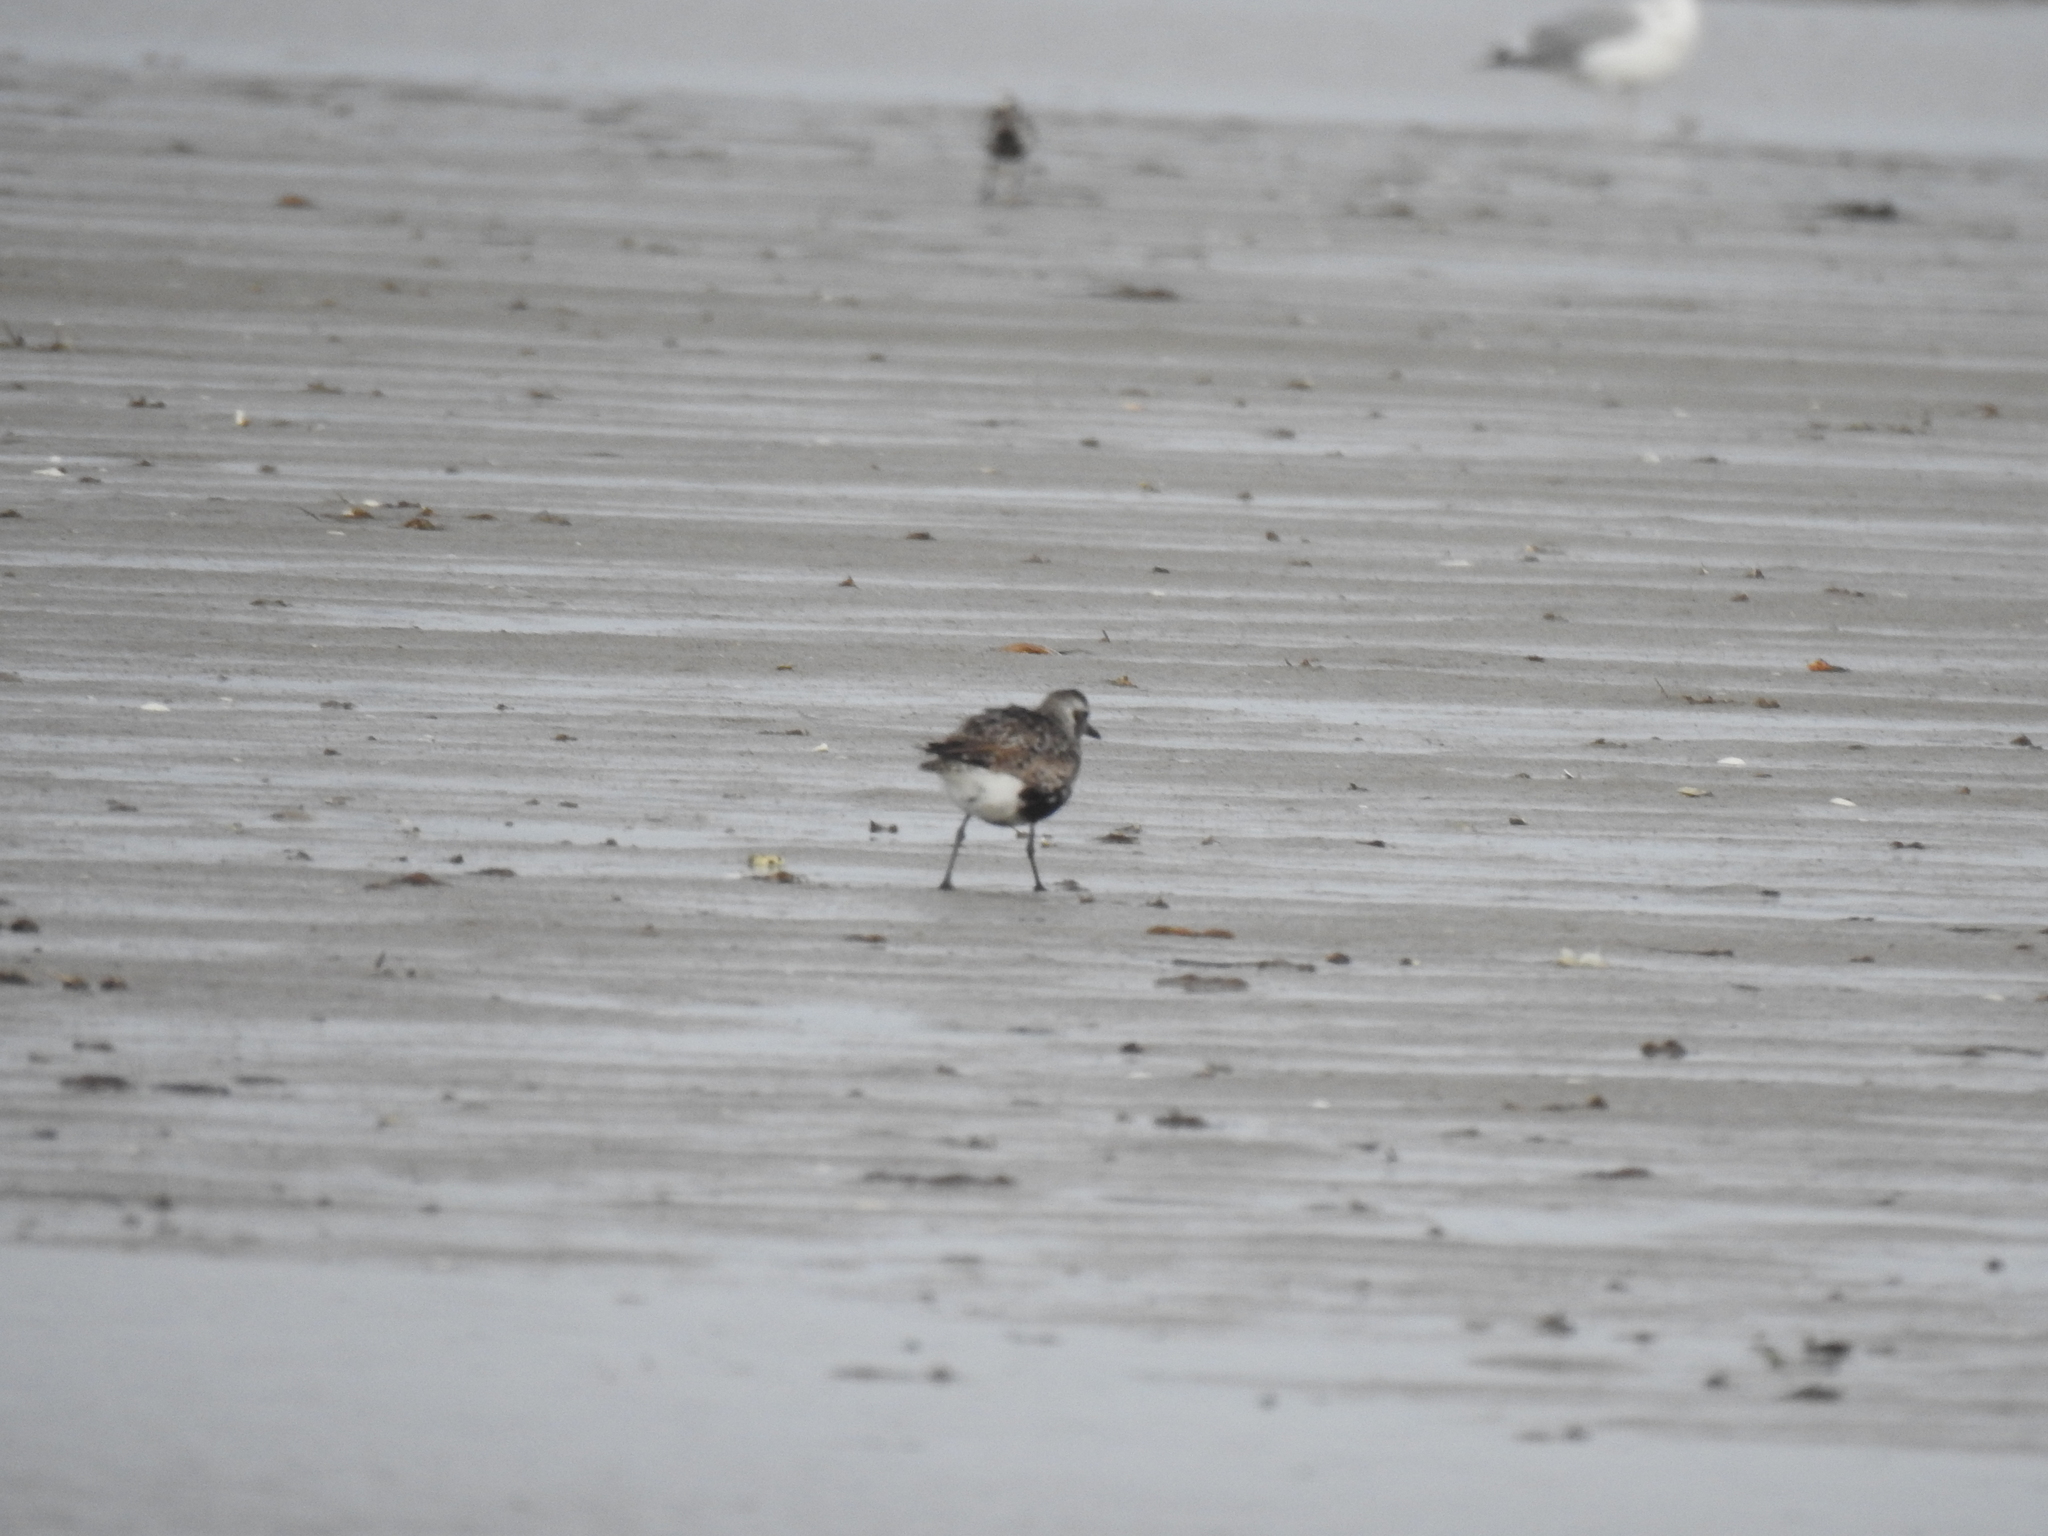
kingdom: Animalia
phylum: Chordata
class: Aves
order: Charadriiformes
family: Charadriidae
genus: Pluvialis
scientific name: Pluvialis squatarola
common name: Grey plover
